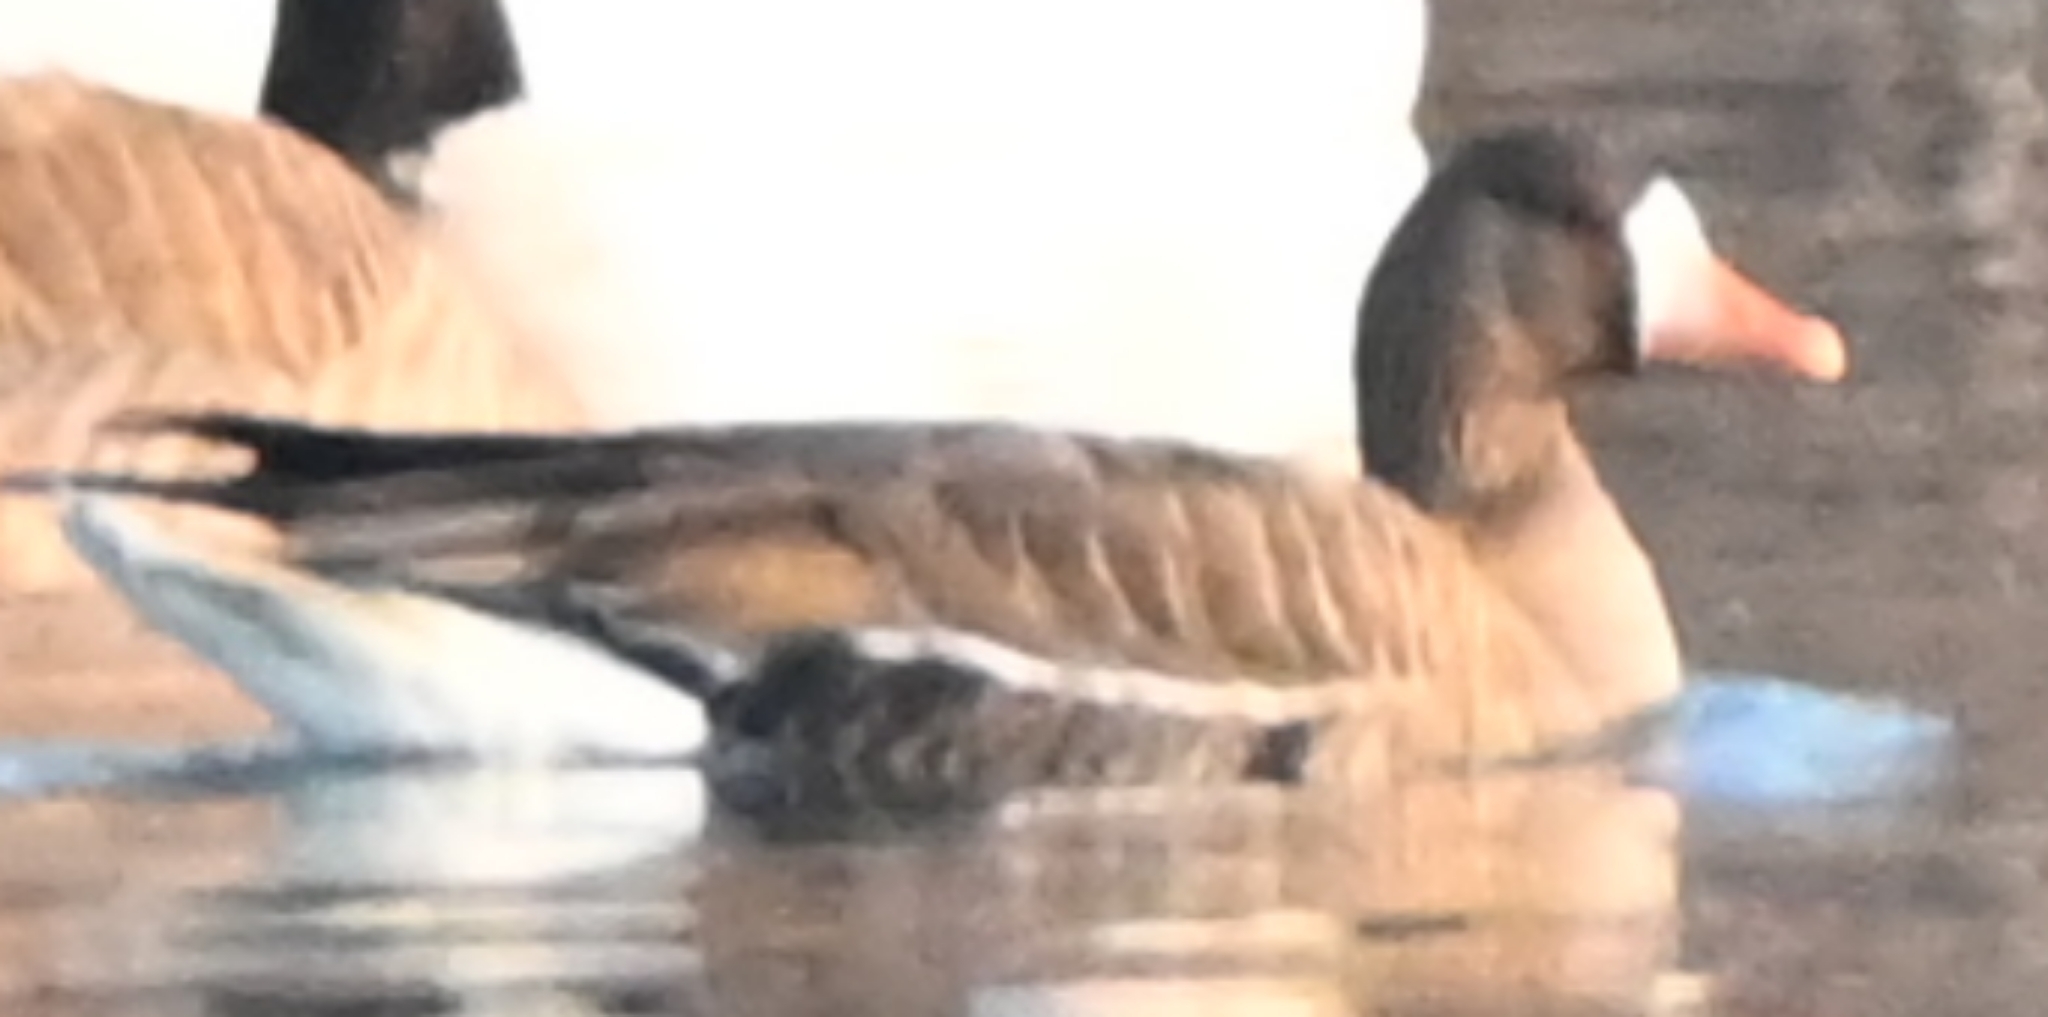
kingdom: Animalia
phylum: Chordata
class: Aves
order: Anseriformes
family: Anatidae
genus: Anser
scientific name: Anser albifrons
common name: Greater white-fronted goose
